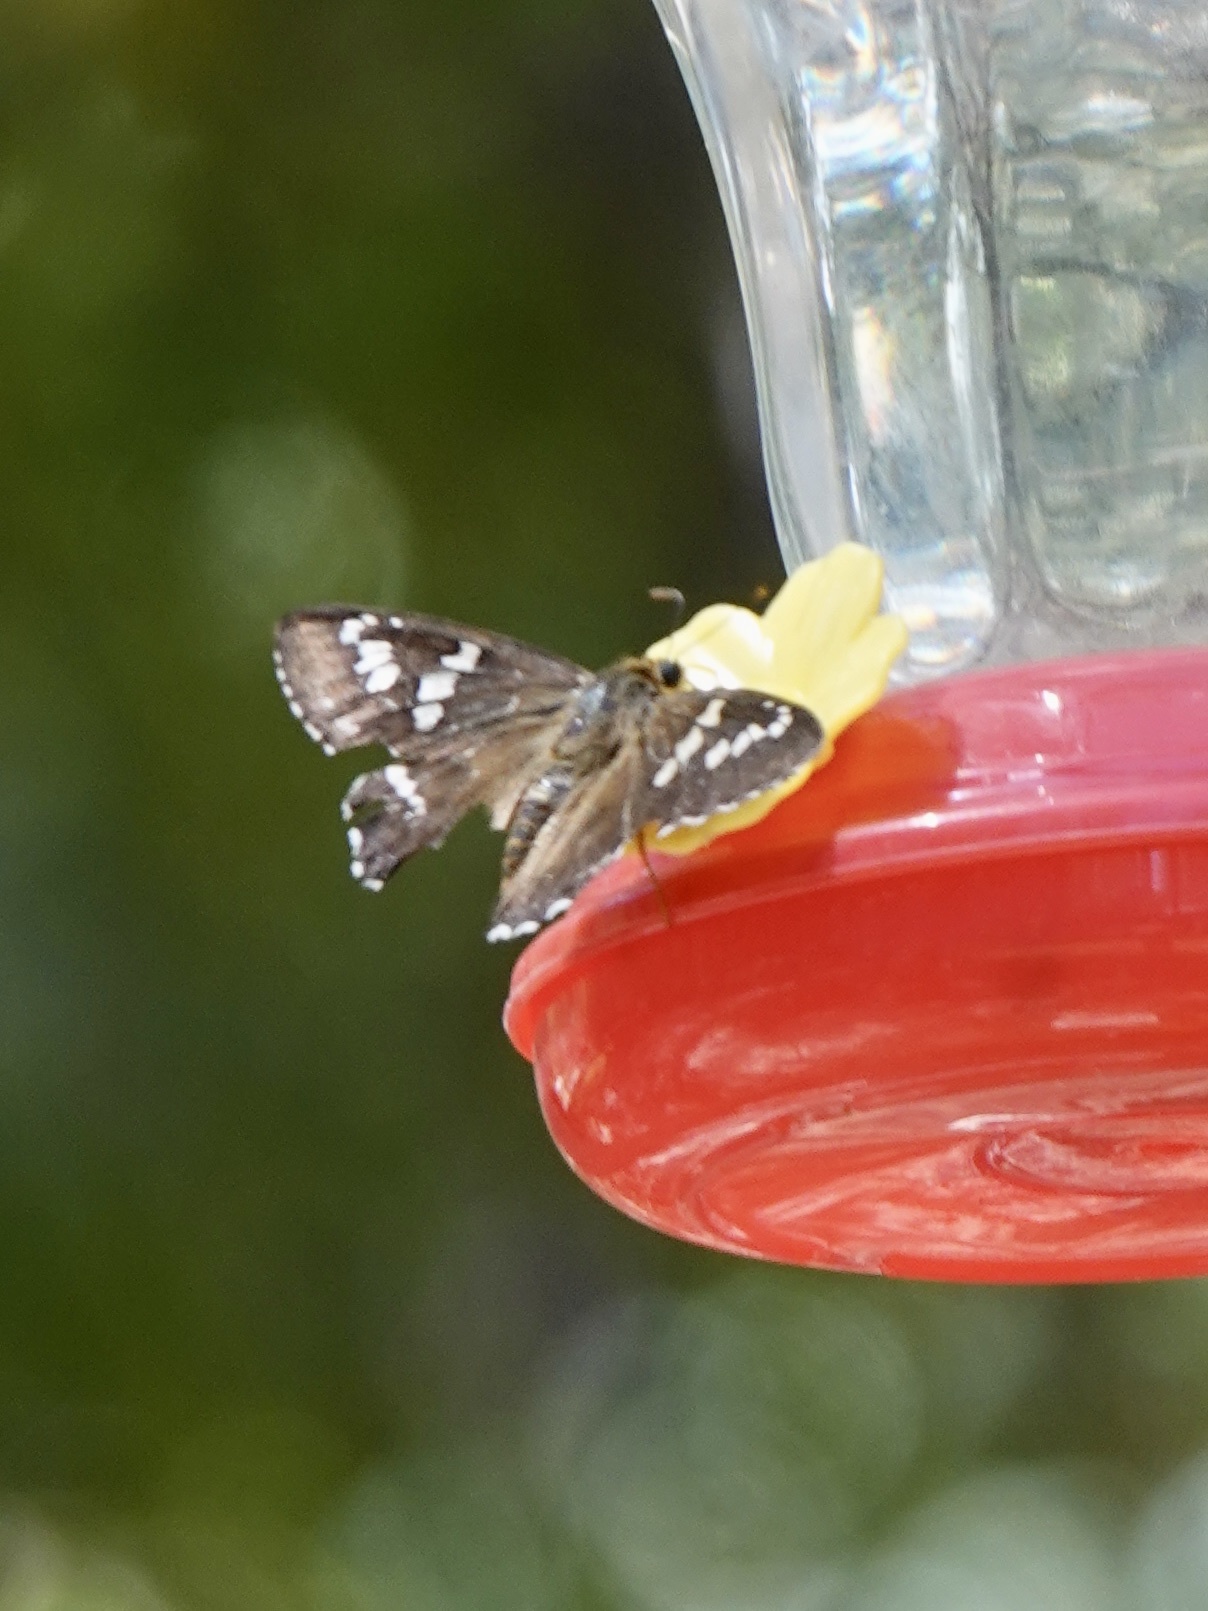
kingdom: Animalia
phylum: Arthropoda
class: Insecta
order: Lepidoptera
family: Hesperiidae
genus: Pyrrhopyge
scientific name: Pyrrhopyge araxes
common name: Dull firetip
